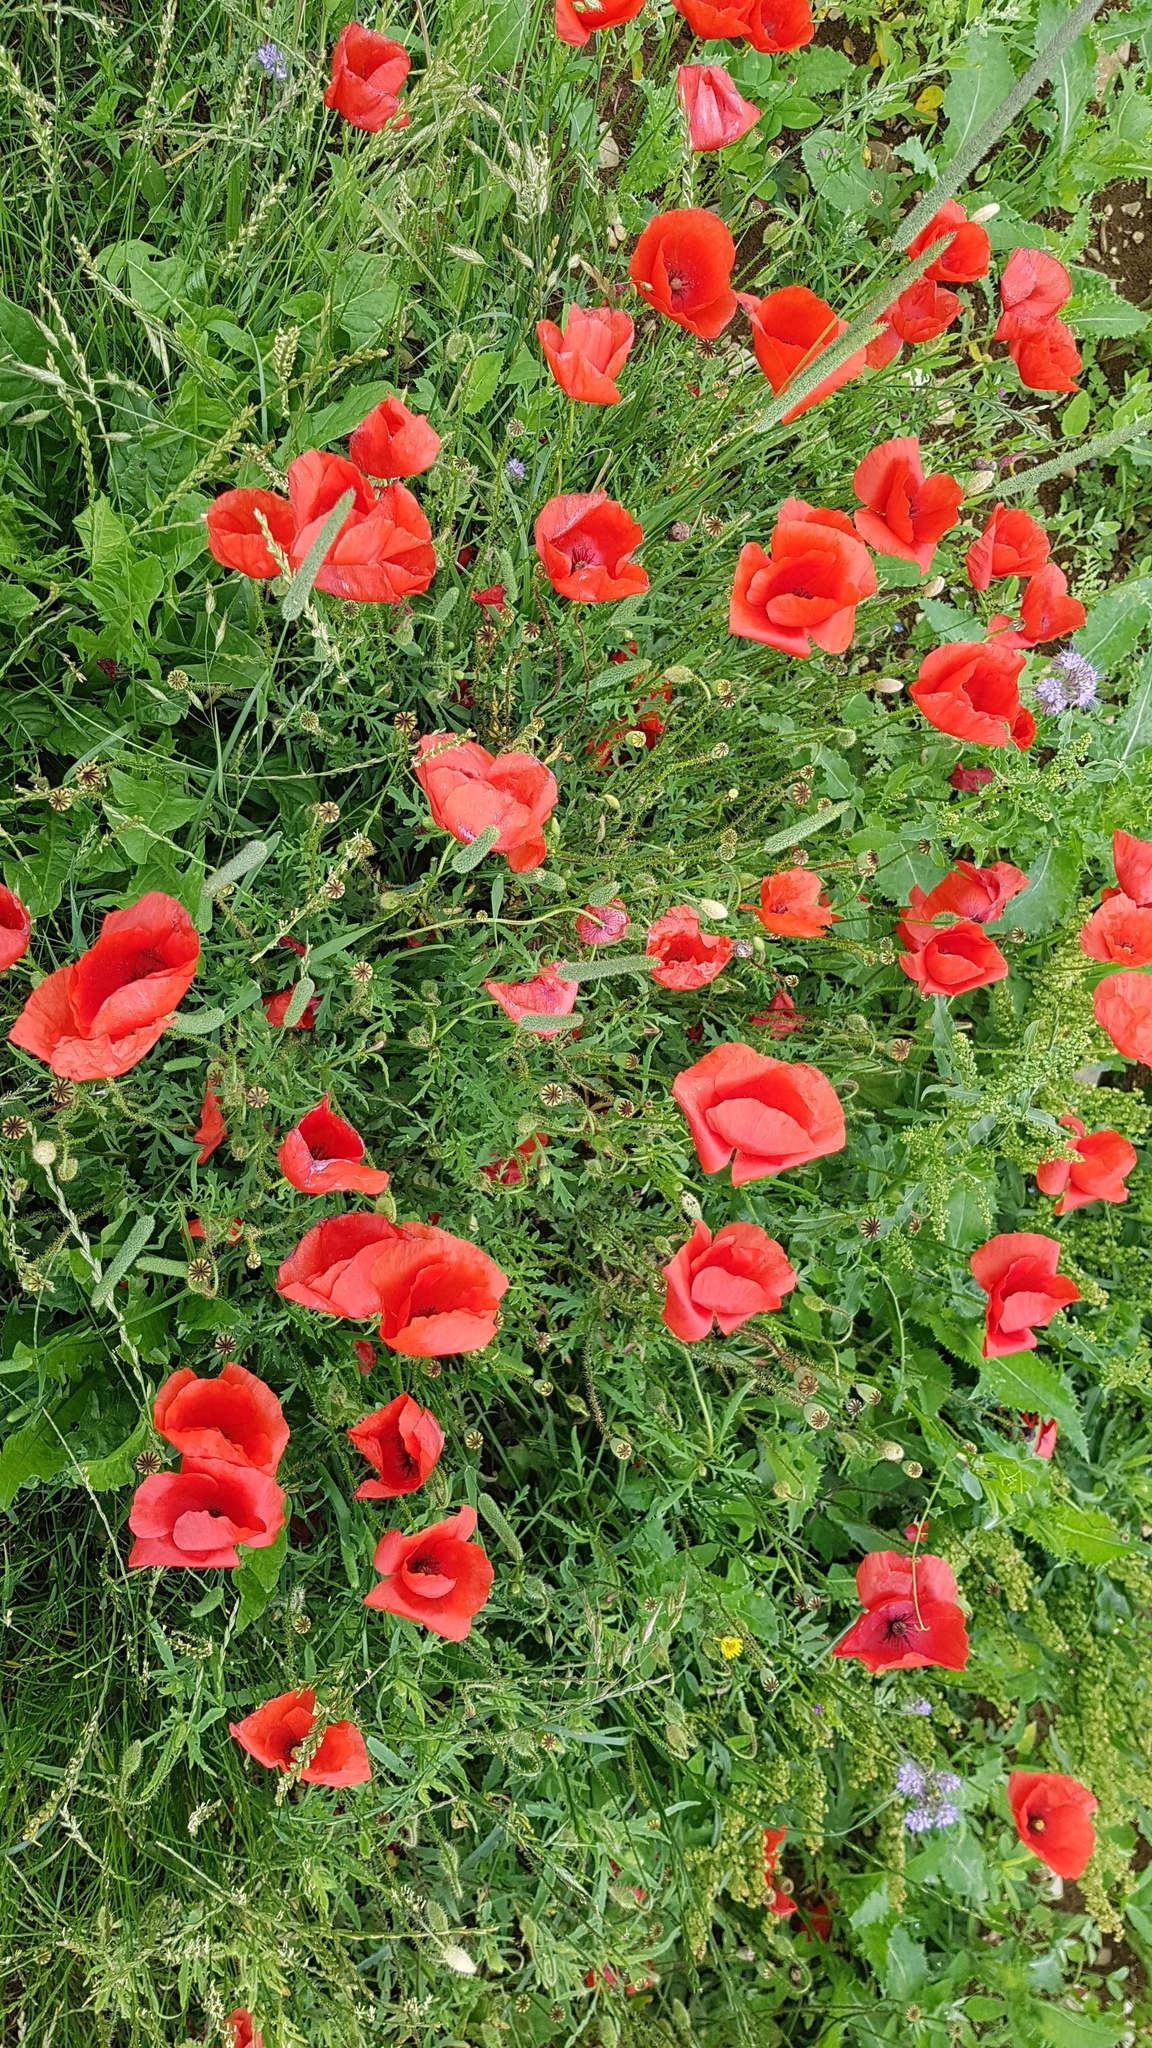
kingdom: Plantae
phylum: Tracheophyta
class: Magnoliopsida
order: Ranunculales
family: Papaveraceae
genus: Papaver
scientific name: Papaver rhoeas
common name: Corn poppy
